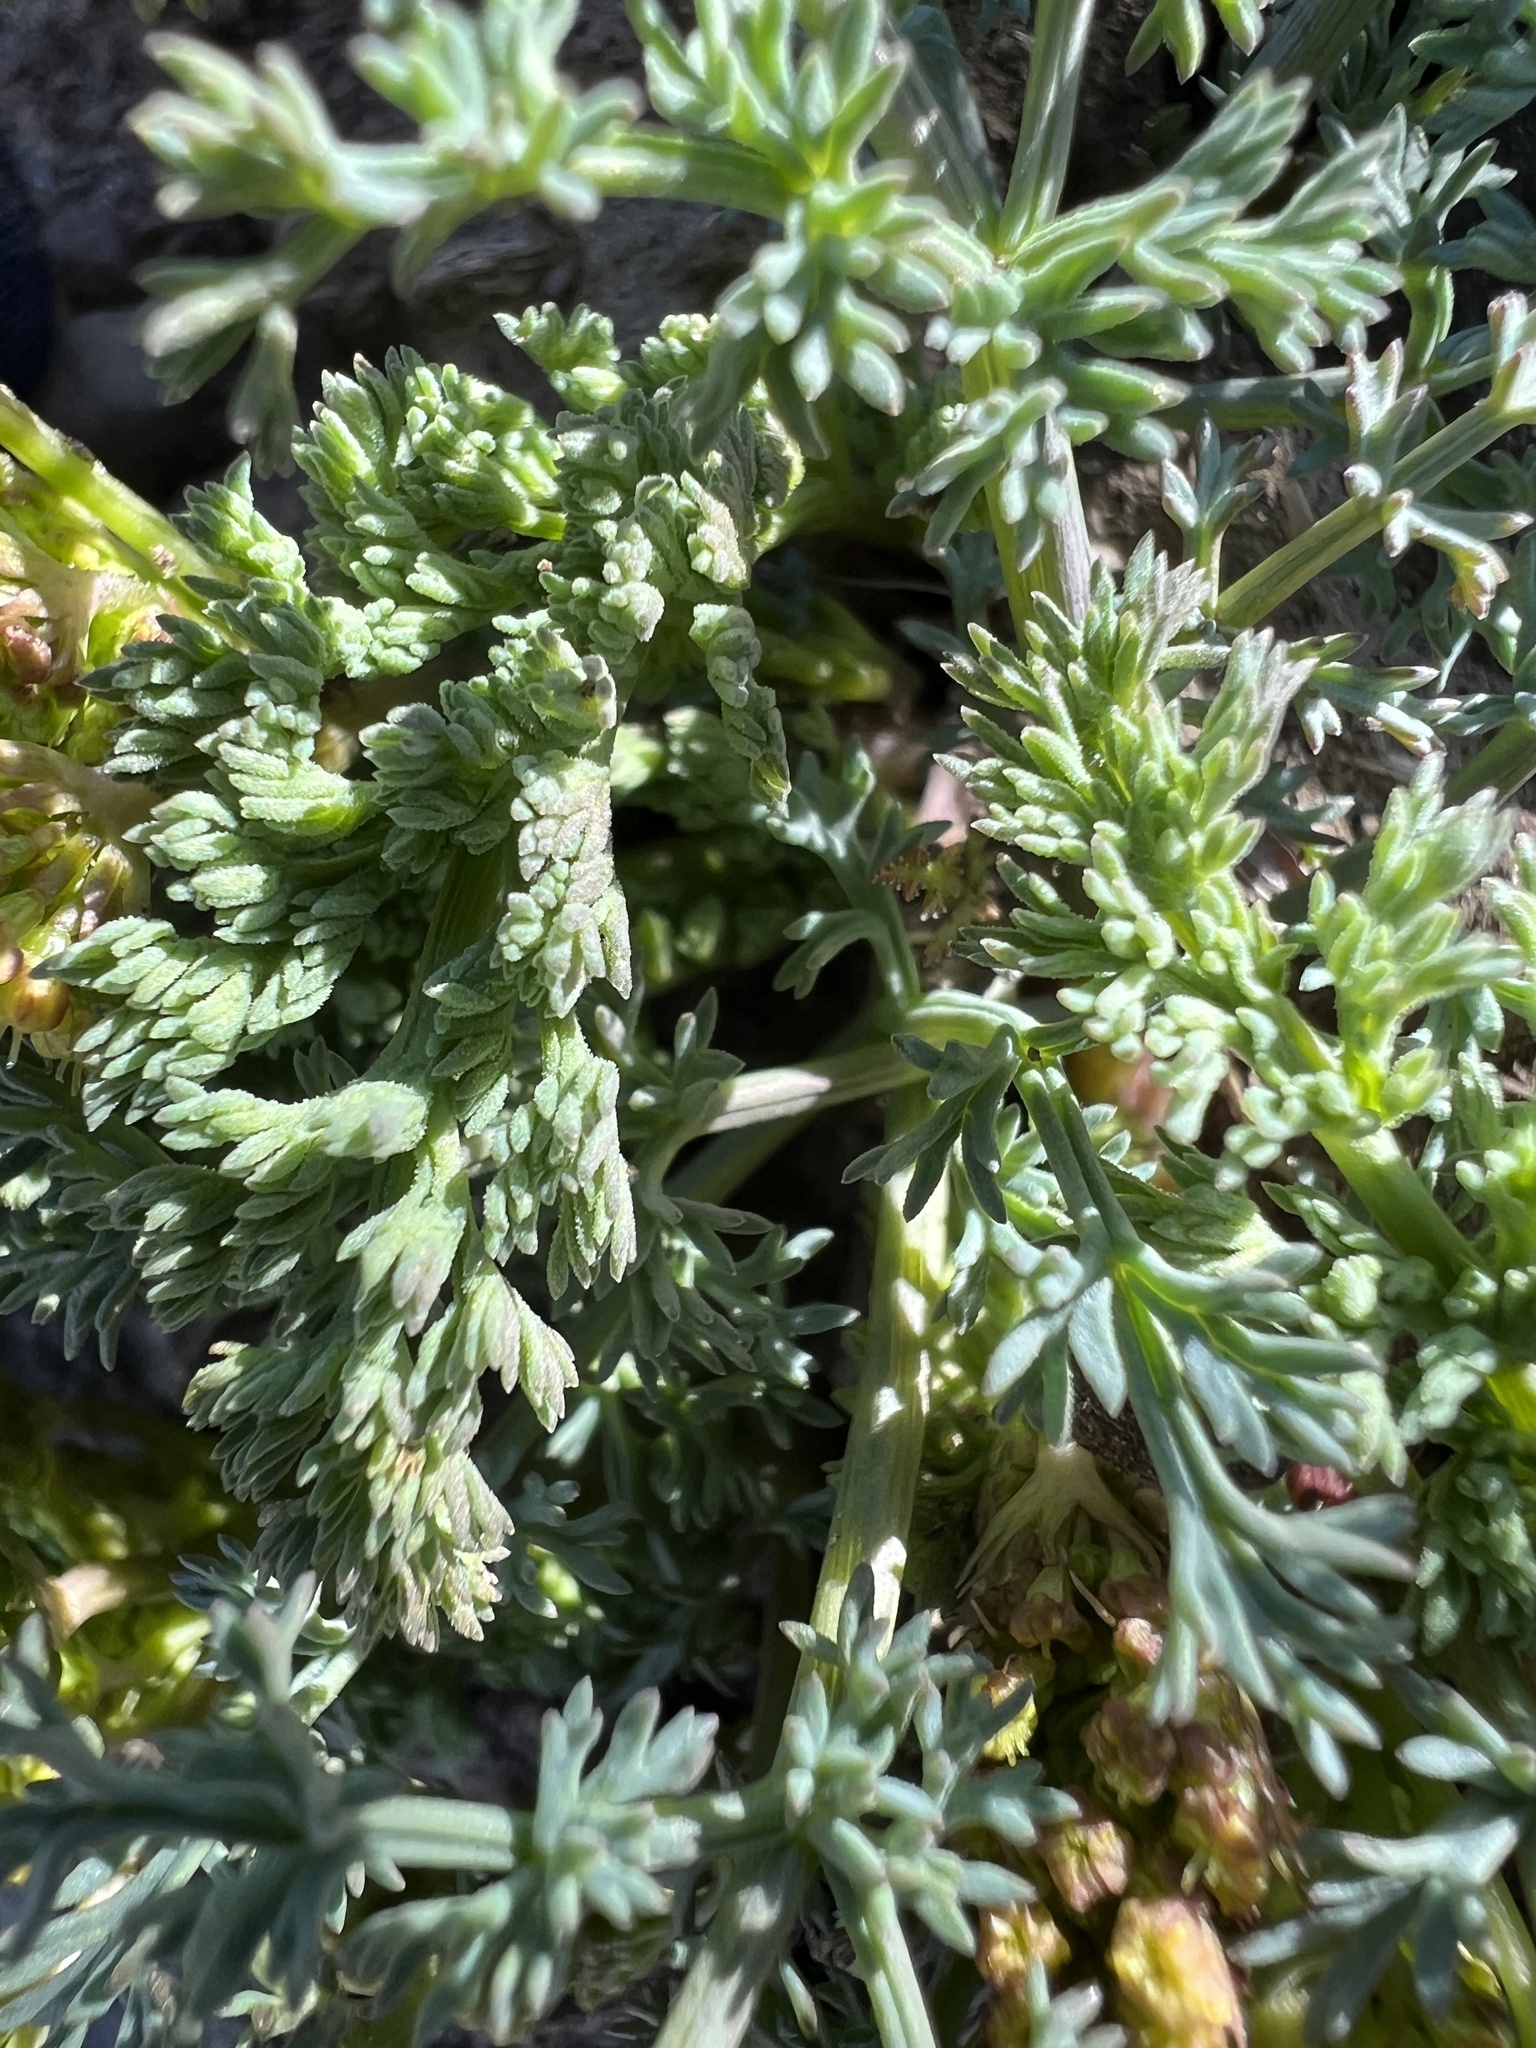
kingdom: Plantae
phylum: Tracheophyta
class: Magnoliopsida
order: Apiales
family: Apiaceae
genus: Lomatium
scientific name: Lomatium papilioniferum
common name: Butterfly lomatium
